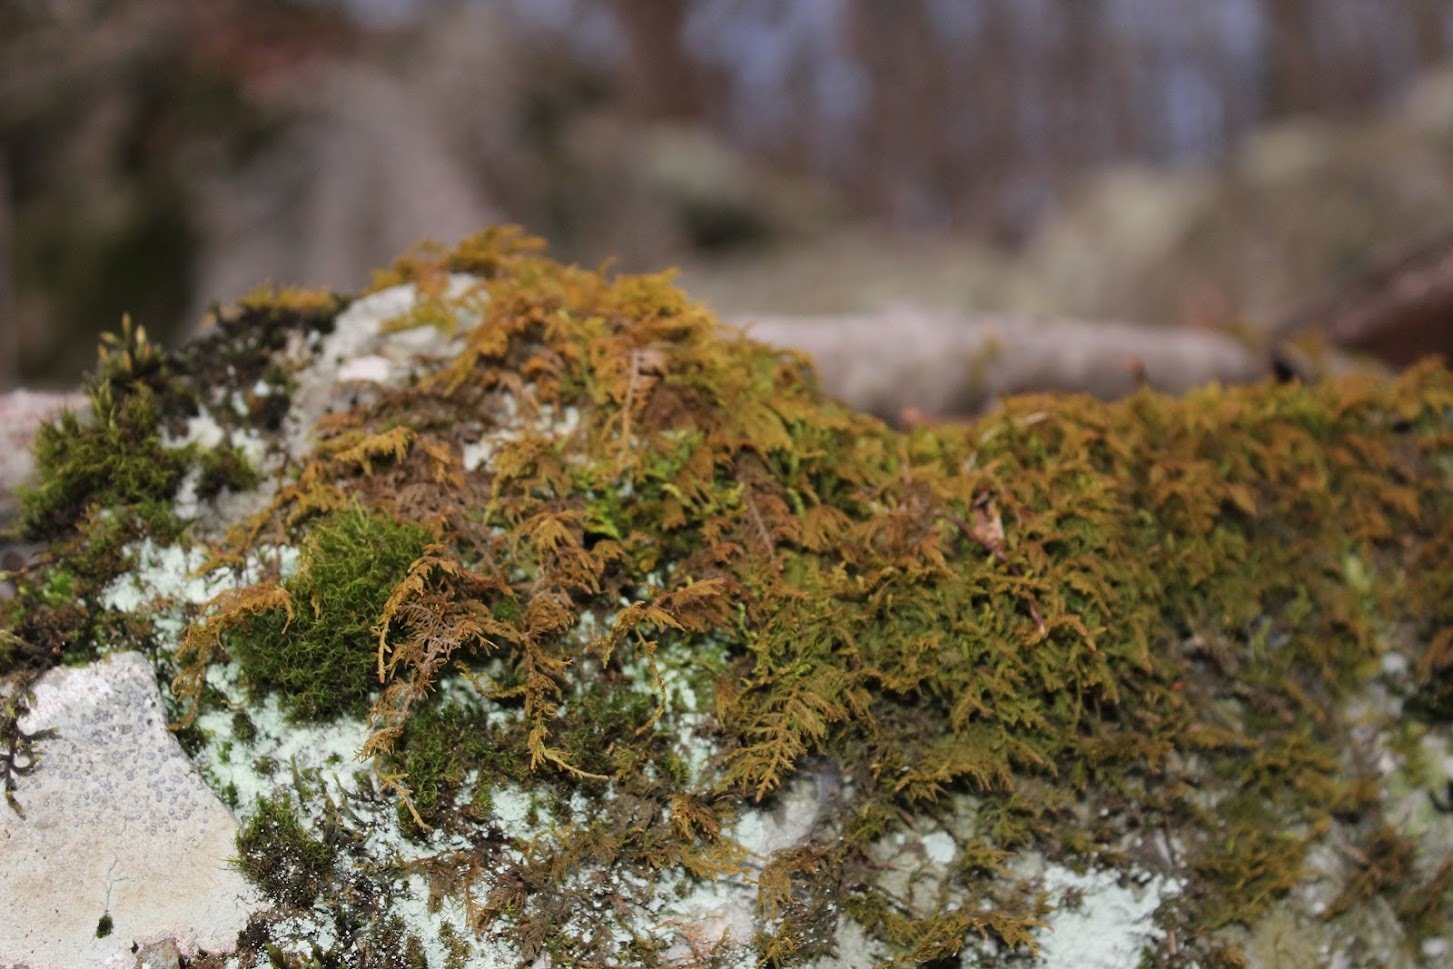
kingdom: Plantae
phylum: Bryophyta
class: Bryopsida
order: Hypnales
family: Thuidiaceae
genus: Thuidium
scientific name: Thuidium delicatulum
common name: Delicate fern moss
